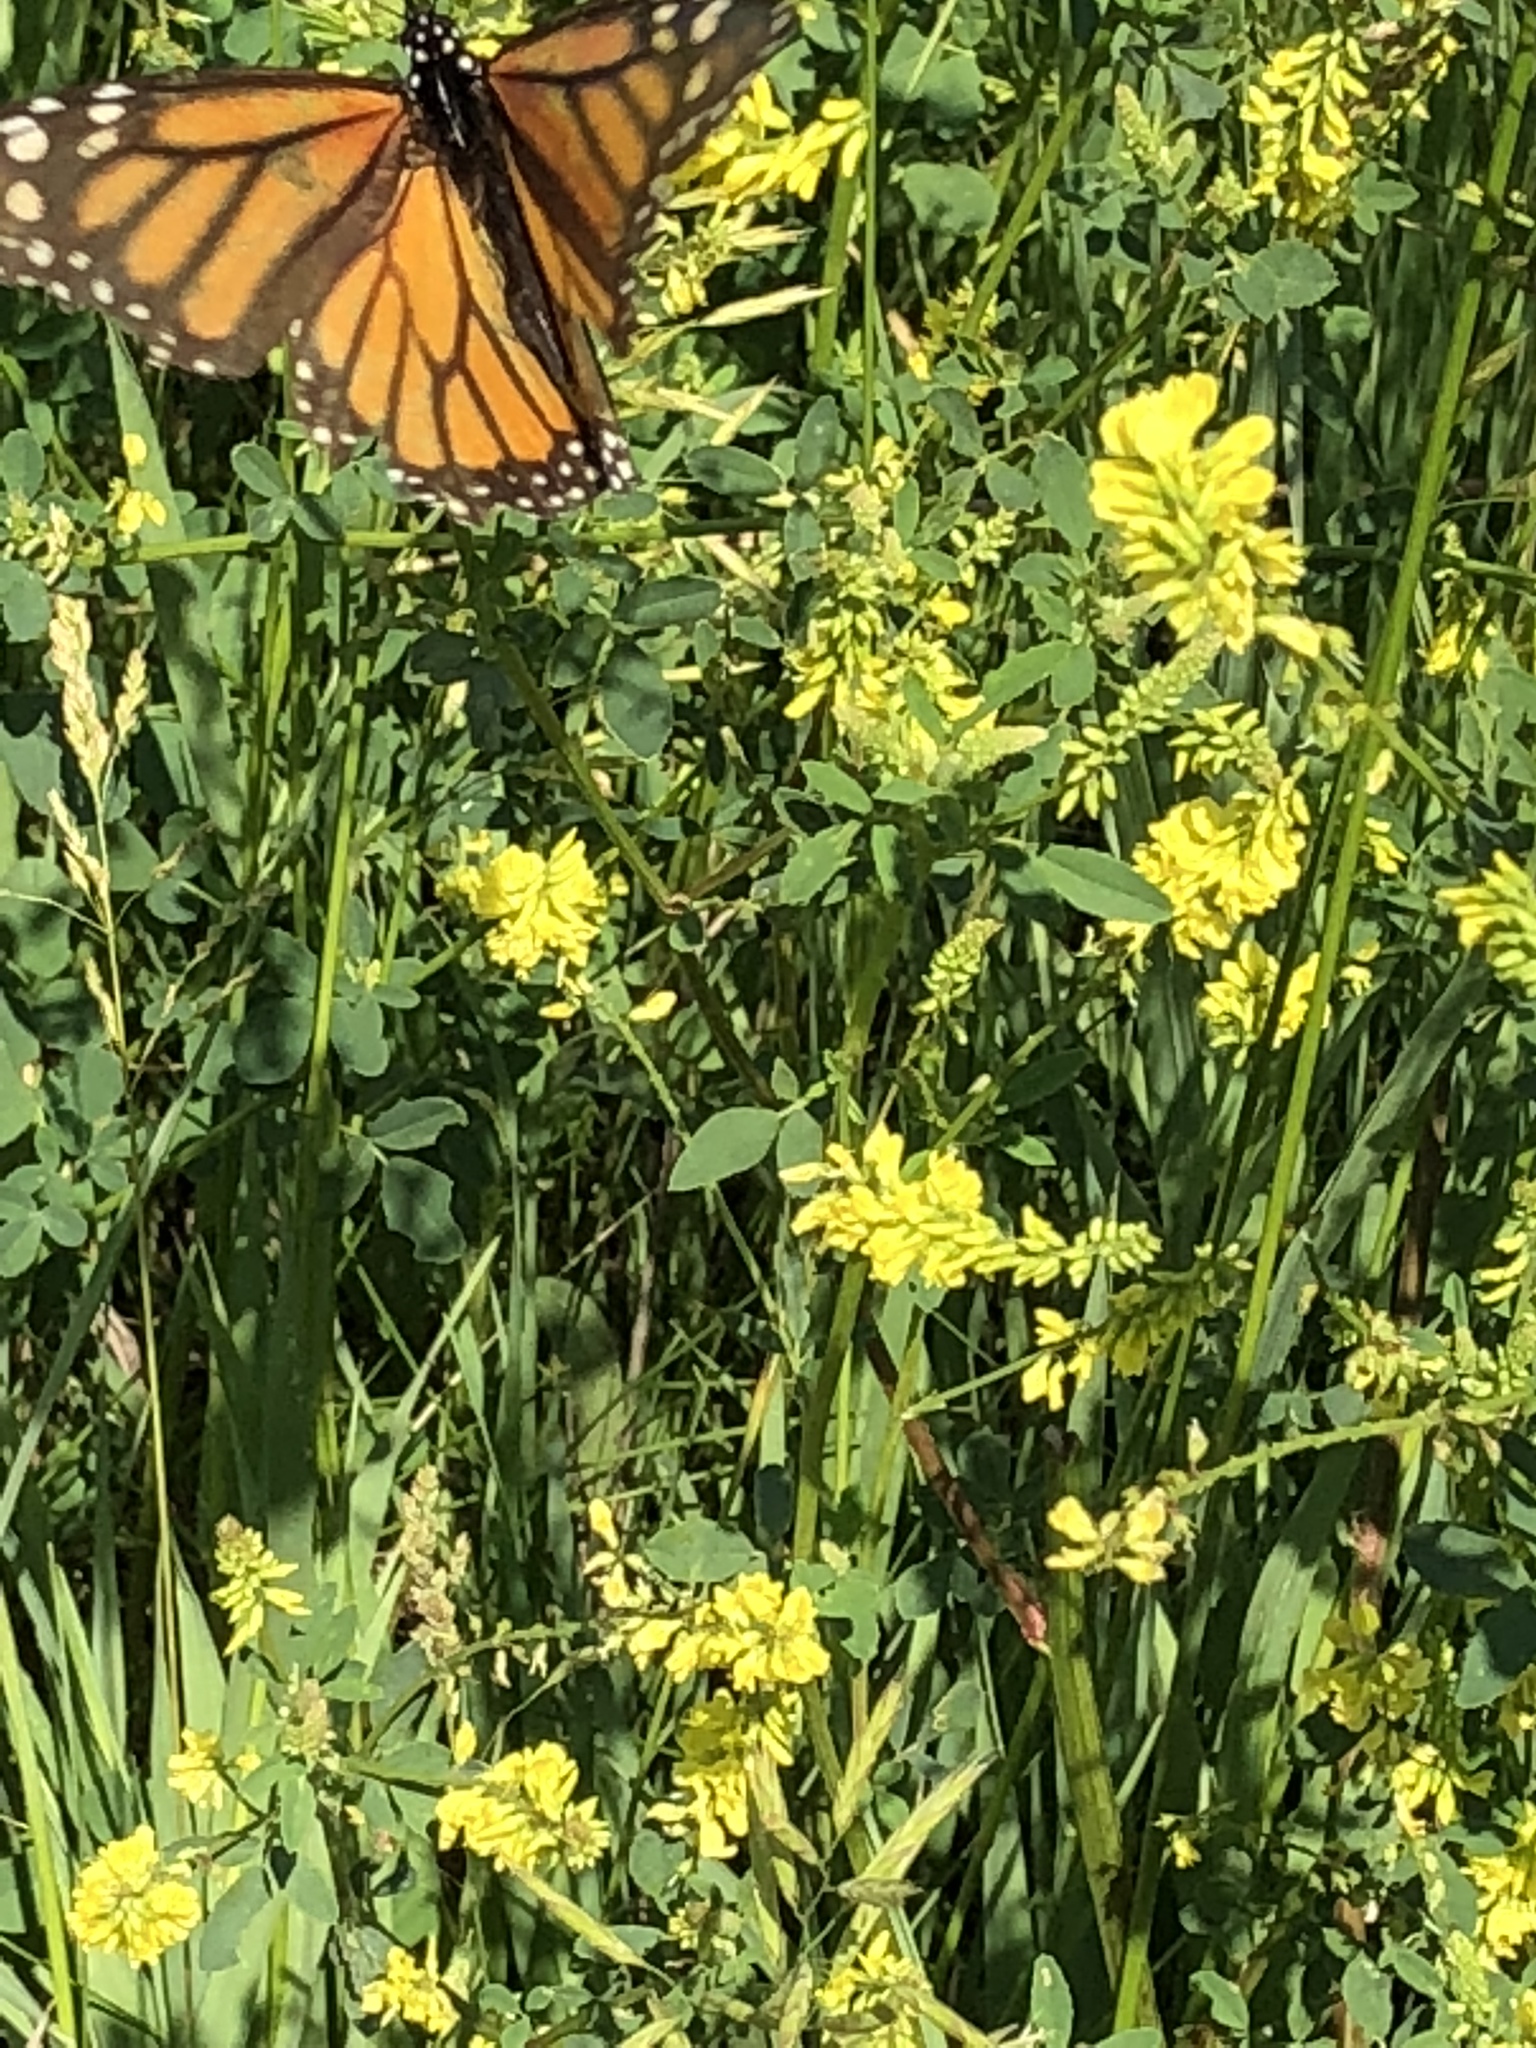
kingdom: Animalia
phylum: Arthropoda
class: Insecta
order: Lepidoptera
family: Nymphalidae
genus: Danaus
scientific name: Danaus plexippus
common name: Monarch
